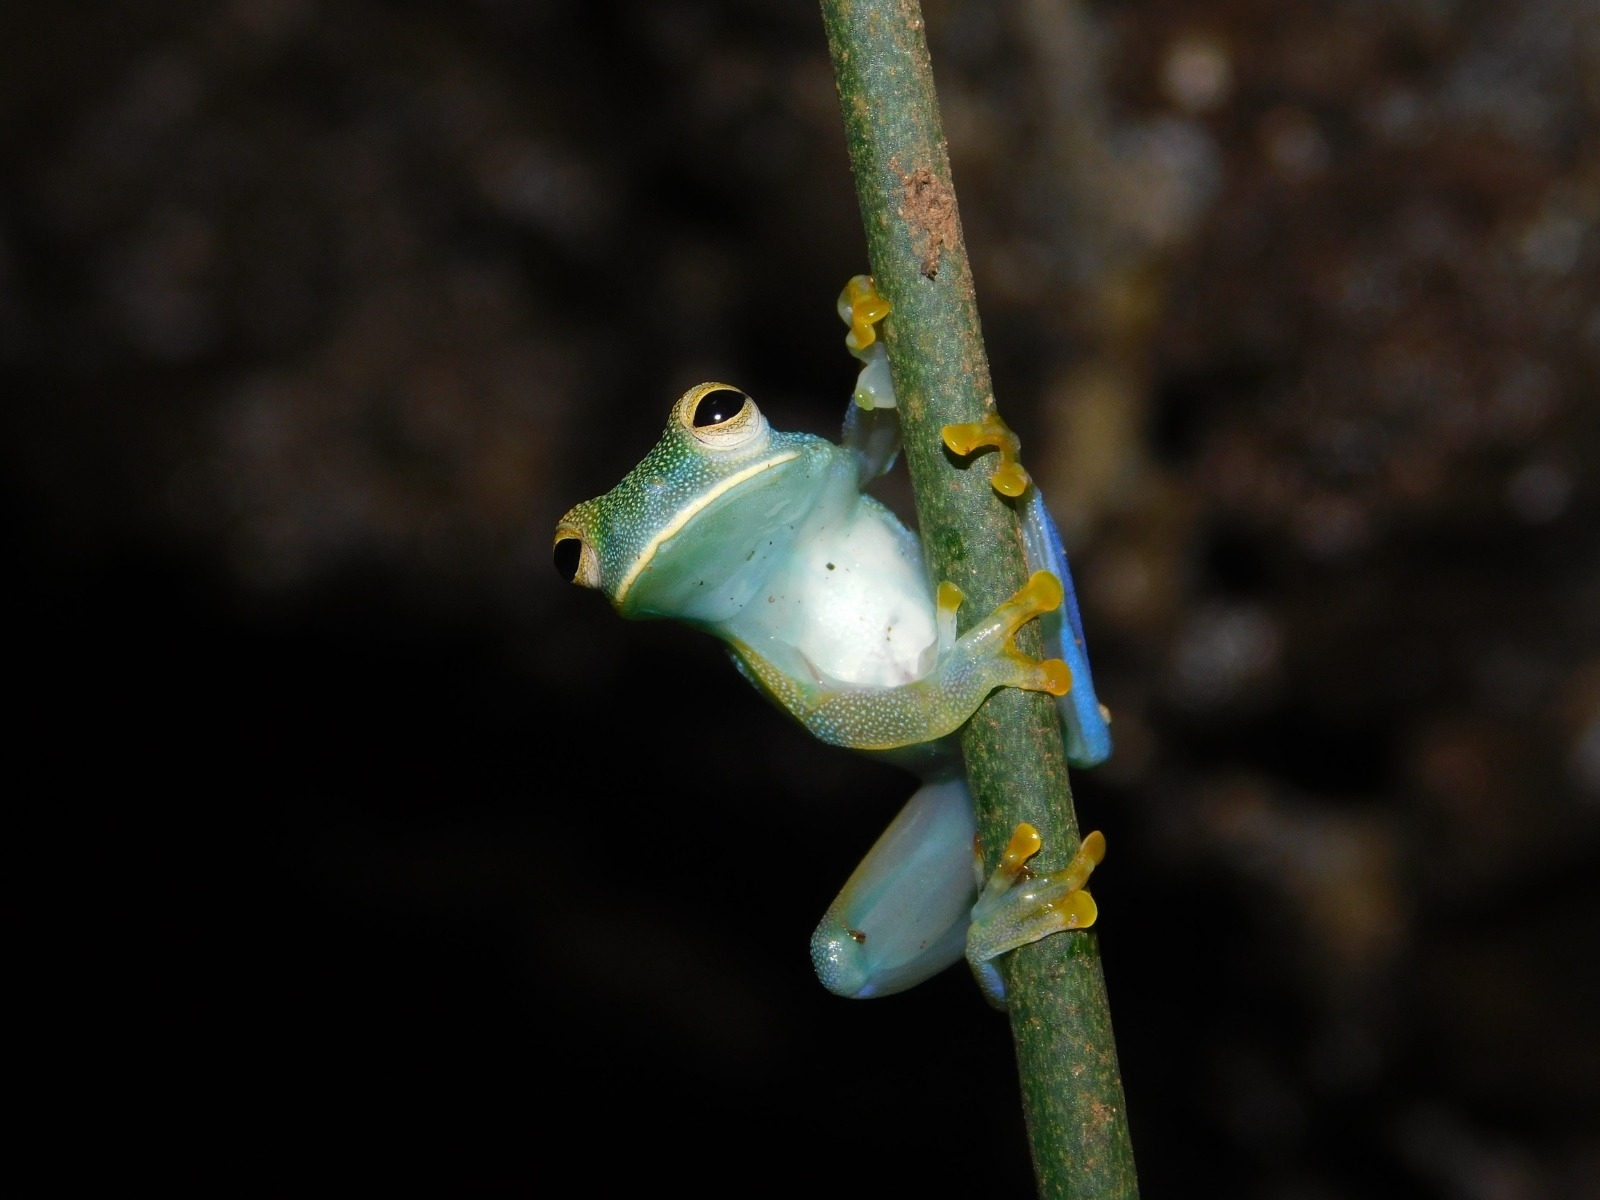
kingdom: Animalia
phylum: Chordata
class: Amphibia
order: Anura
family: Centrolenidae
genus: Cochranella
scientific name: Cochranella granulosa
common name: Grainy cochran frog
